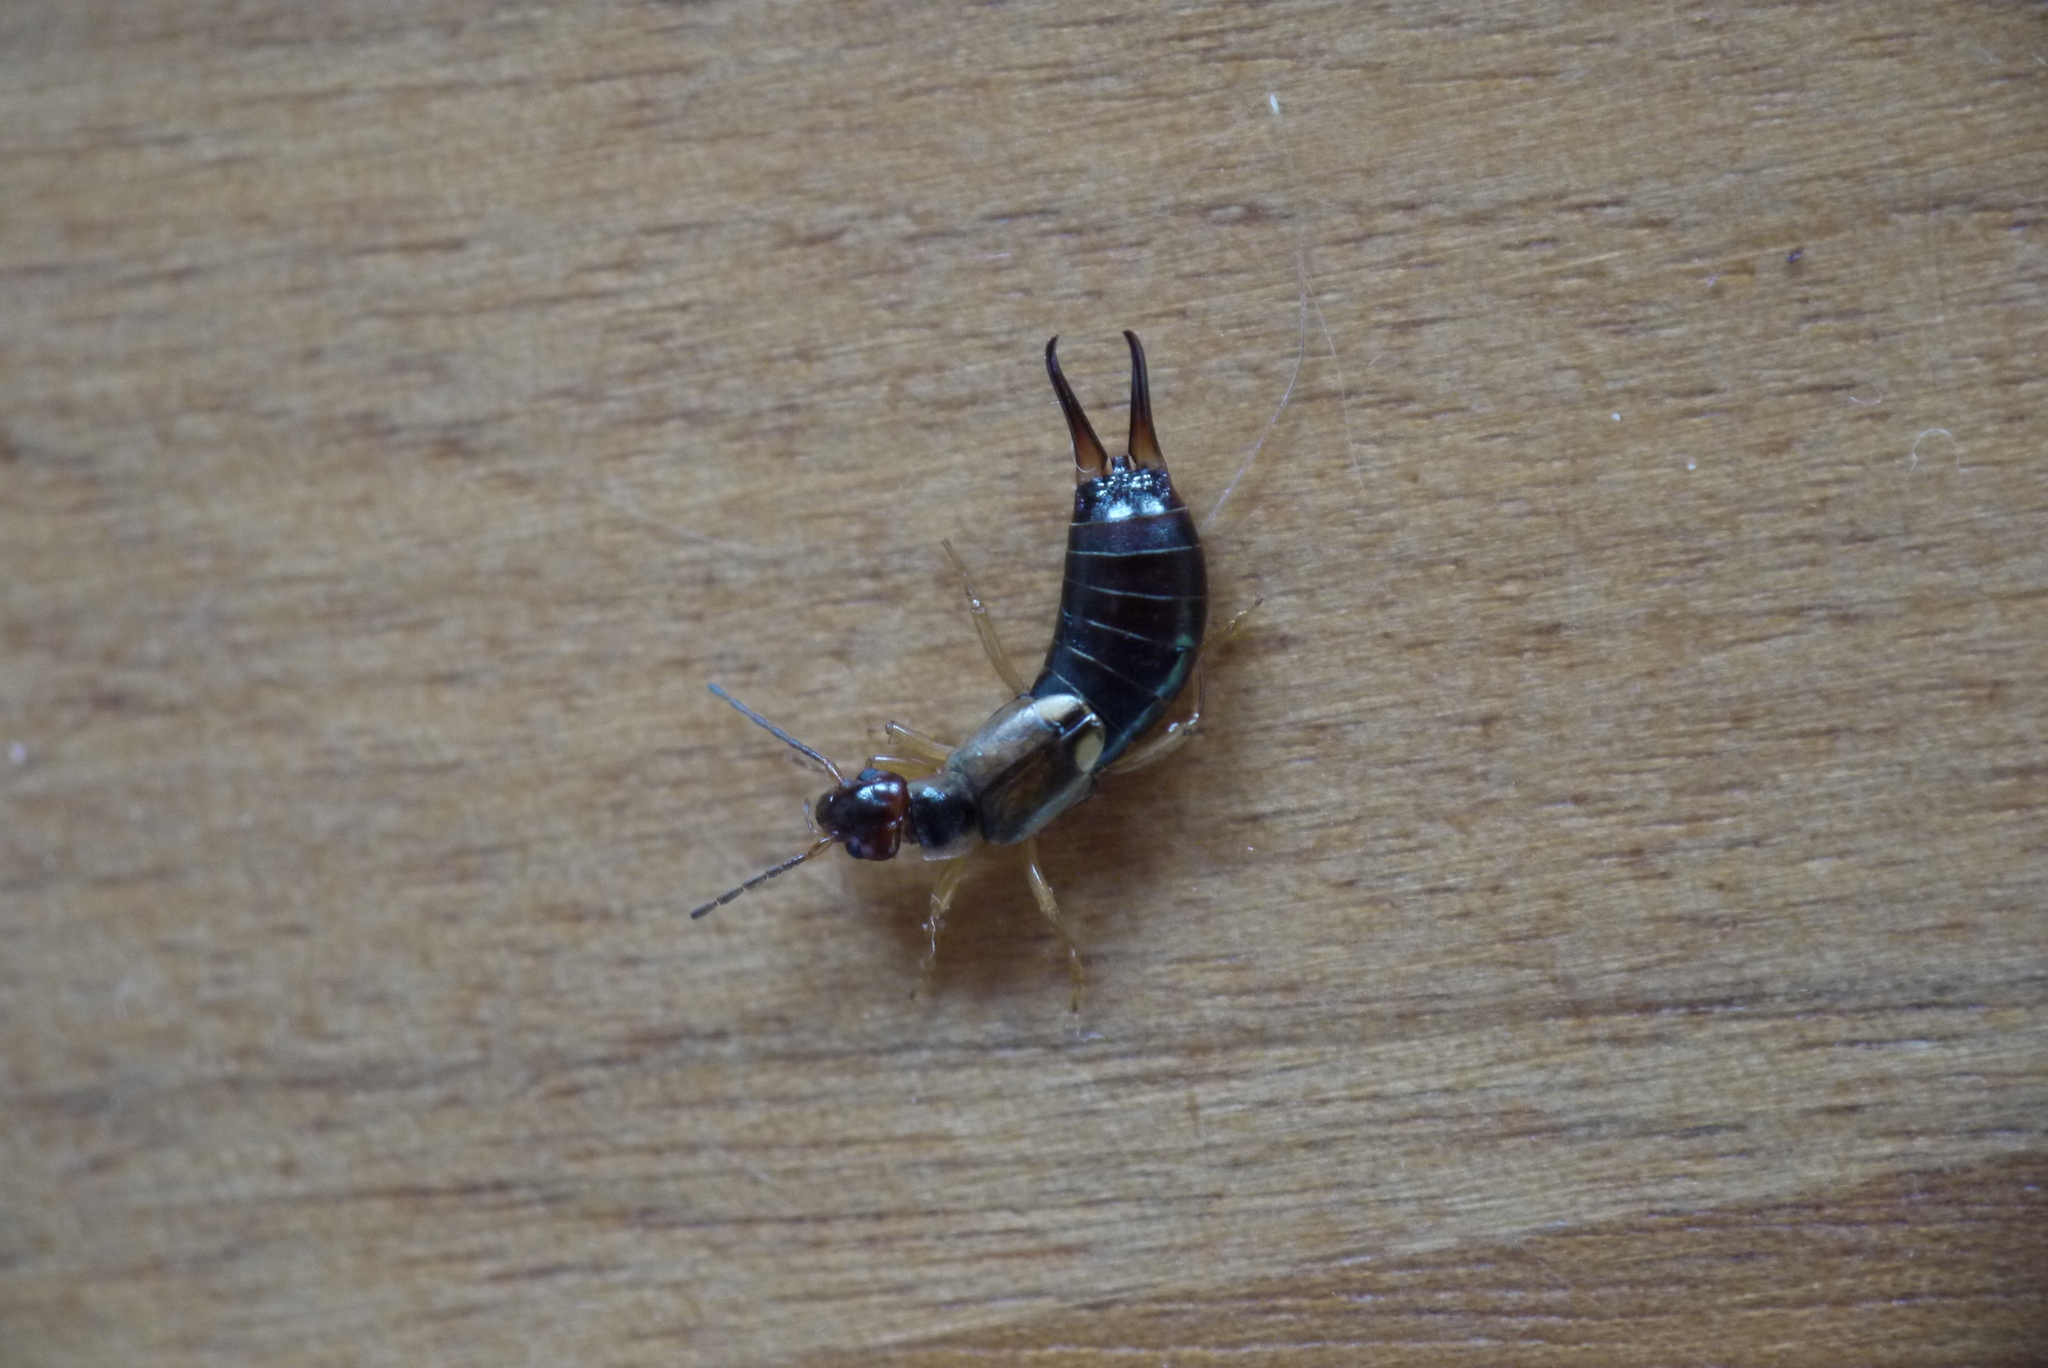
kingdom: Animalia
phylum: Arthropoda
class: Insecta
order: Dermaptera
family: Forficulidae
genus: Forficula
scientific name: Forficula
